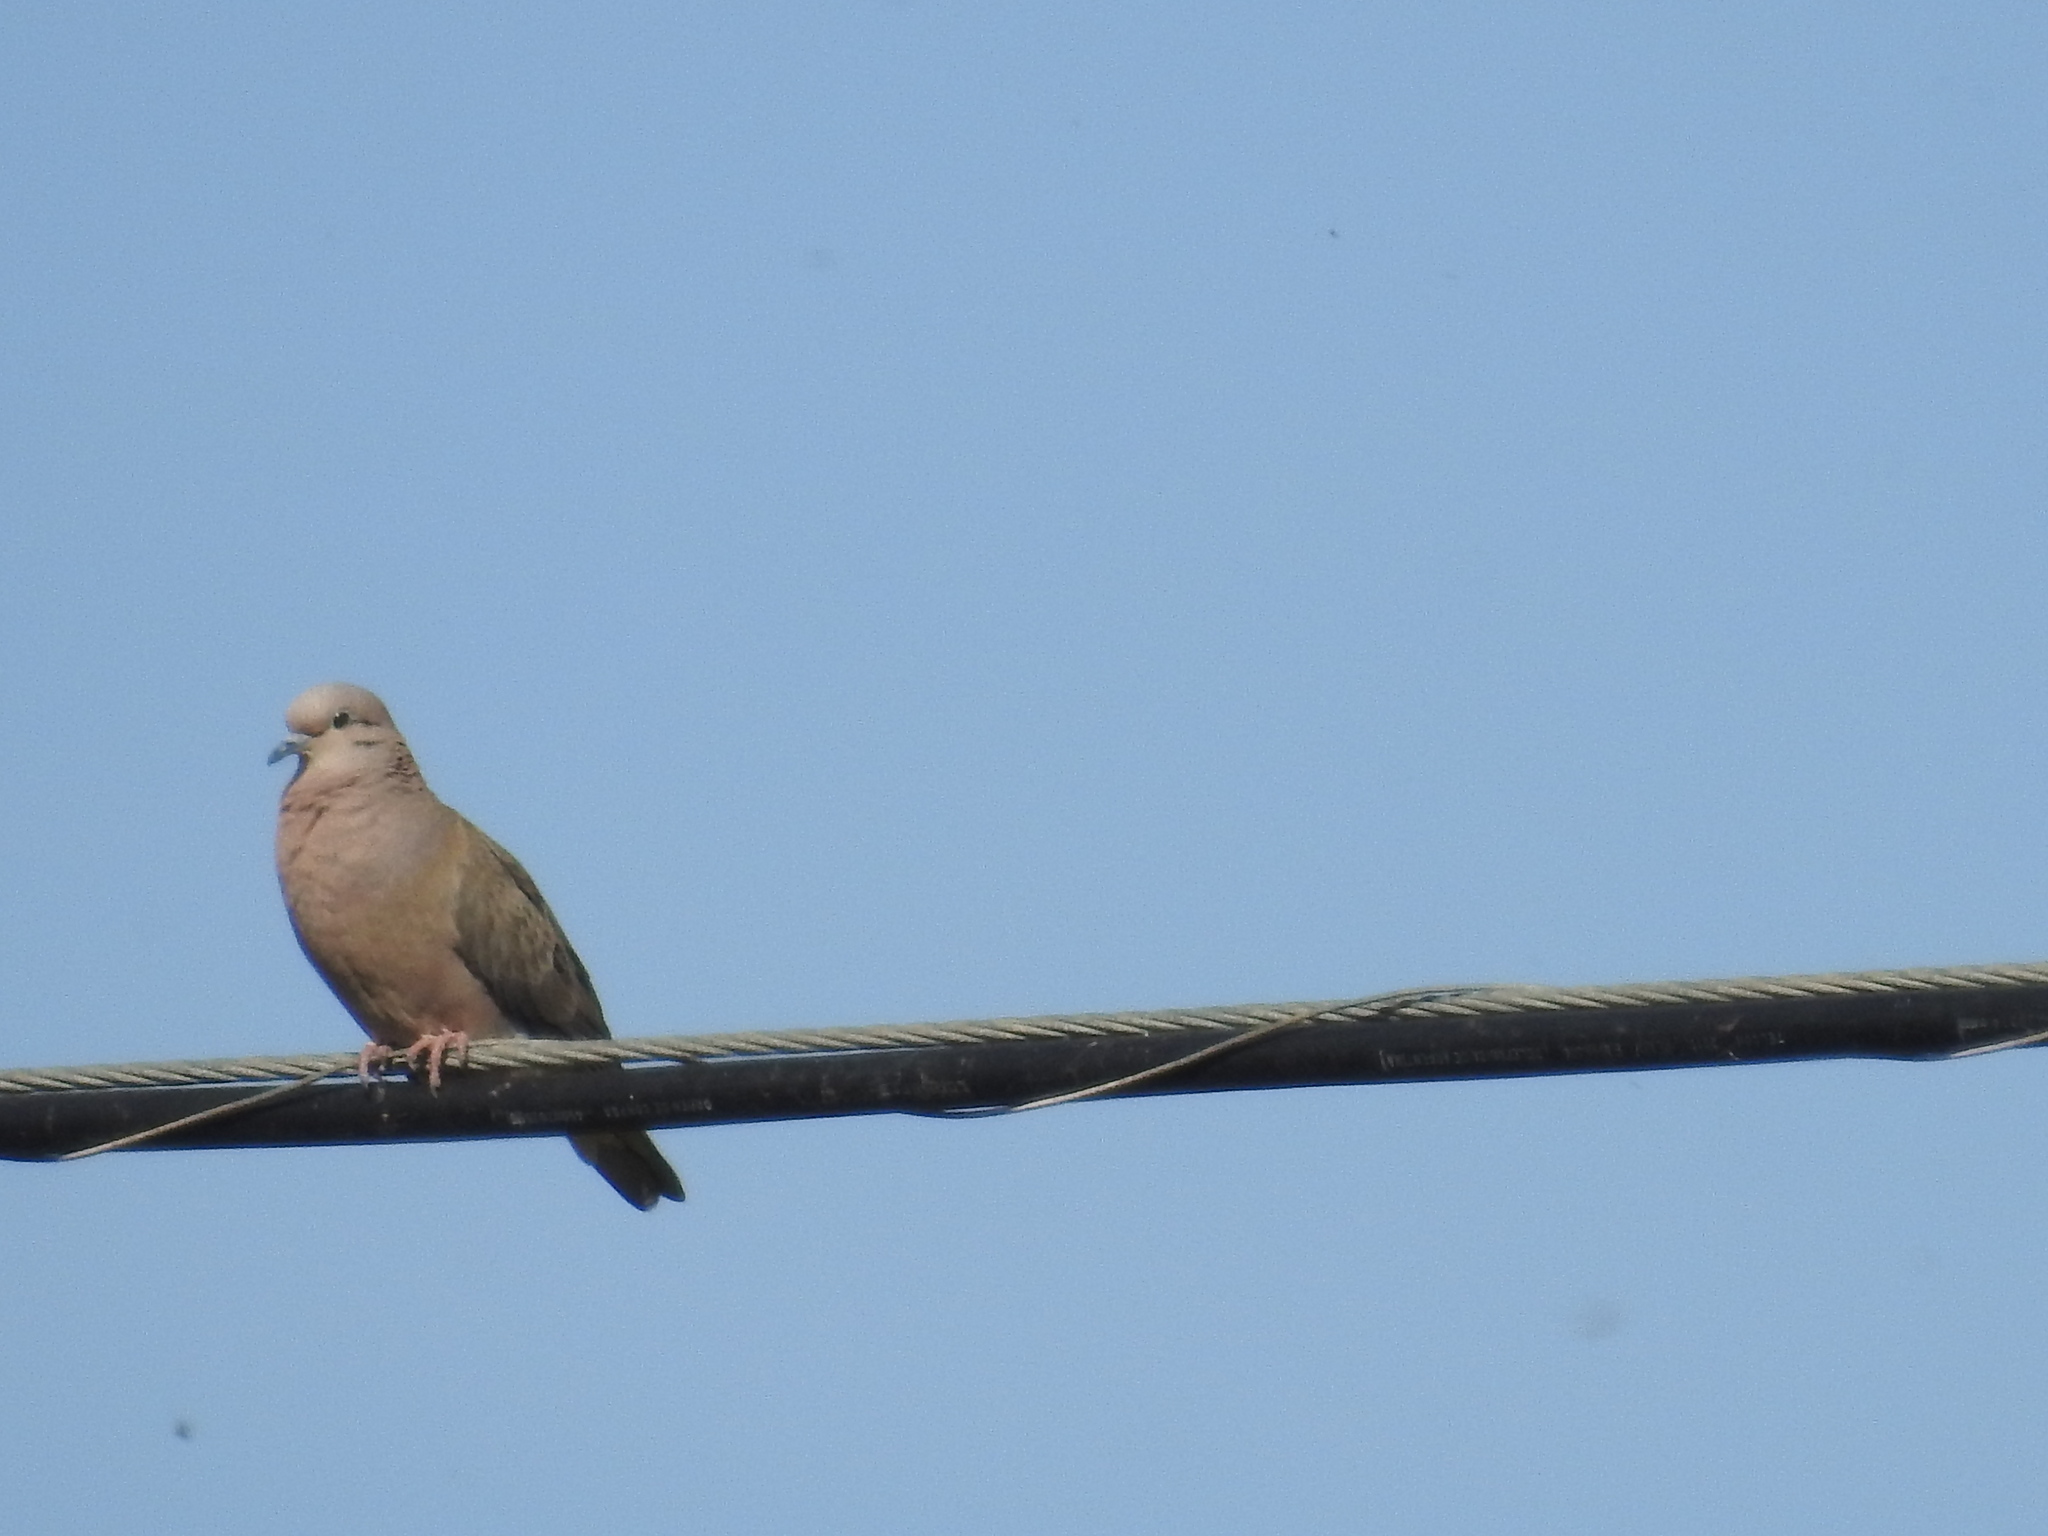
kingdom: Animalia
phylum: Chordata
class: Aves
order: Columbiformes
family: Columbidae
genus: Zenaida
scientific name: Zenaida auriculata
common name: Eared dove
